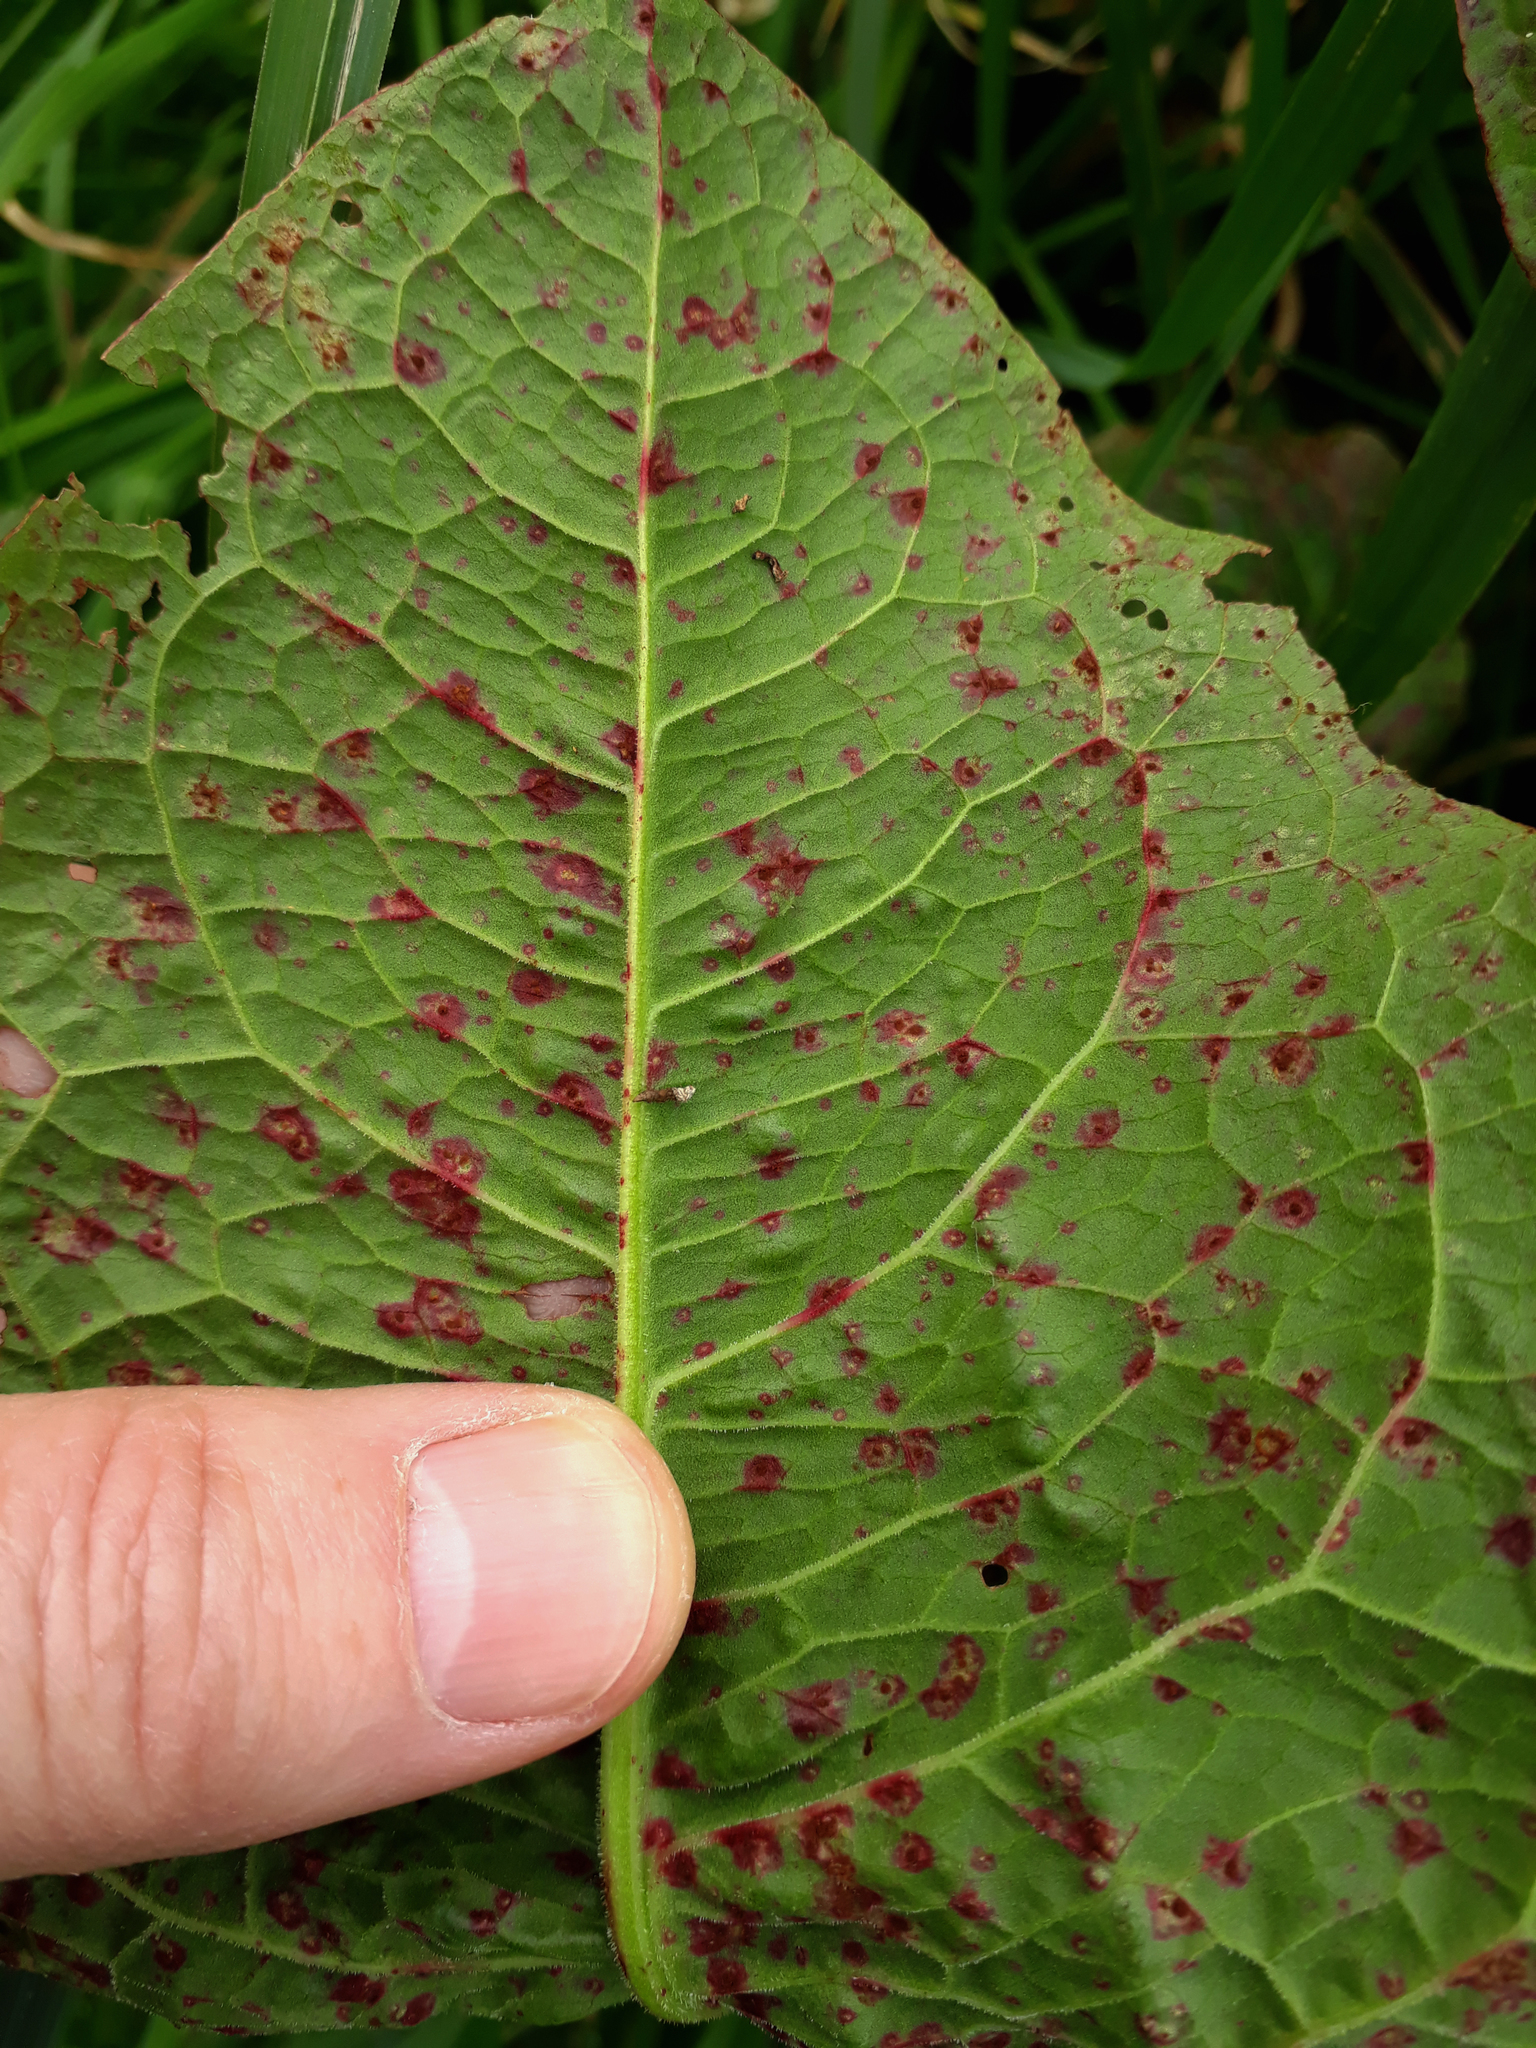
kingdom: Fungi
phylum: Ascomycota
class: Dothideomycetes
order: Mycosphaerellales
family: Mycosphaerellaceae
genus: Ramularia
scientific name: Ramularia rubella
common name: Red dock spot
